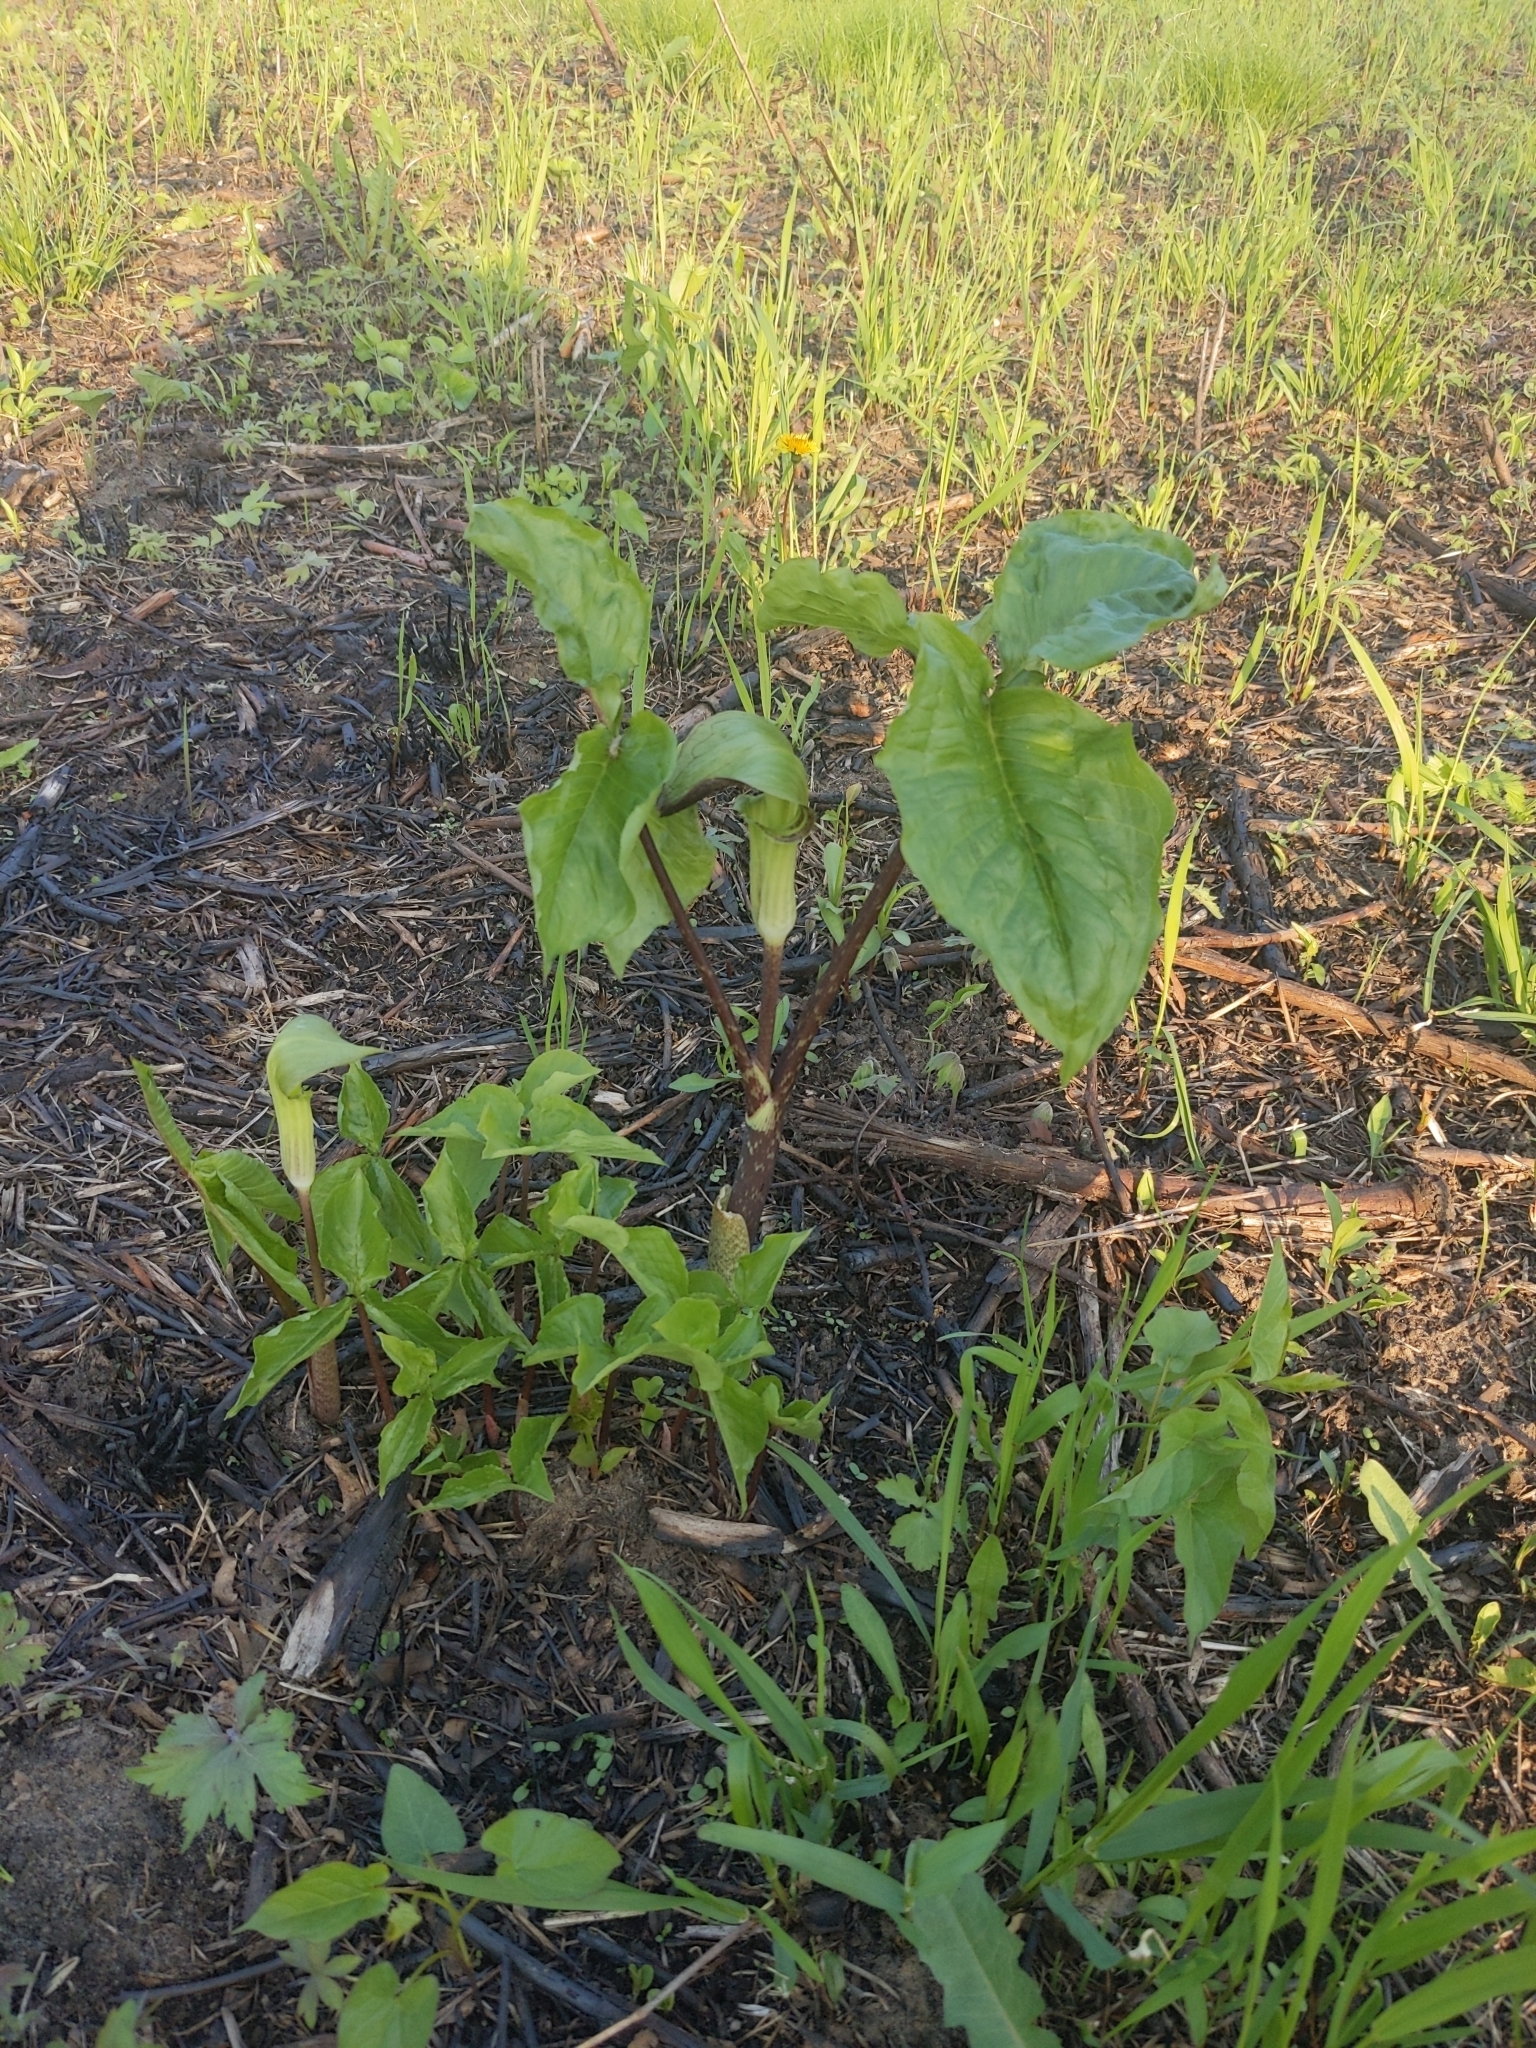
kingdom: Plantae
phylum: Tracheophyta
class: Liliopsida
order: Alismatales
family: Araceae
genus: Arisaema
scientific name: Arisaema triphyllum
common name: Jack-in-the-pulpit
